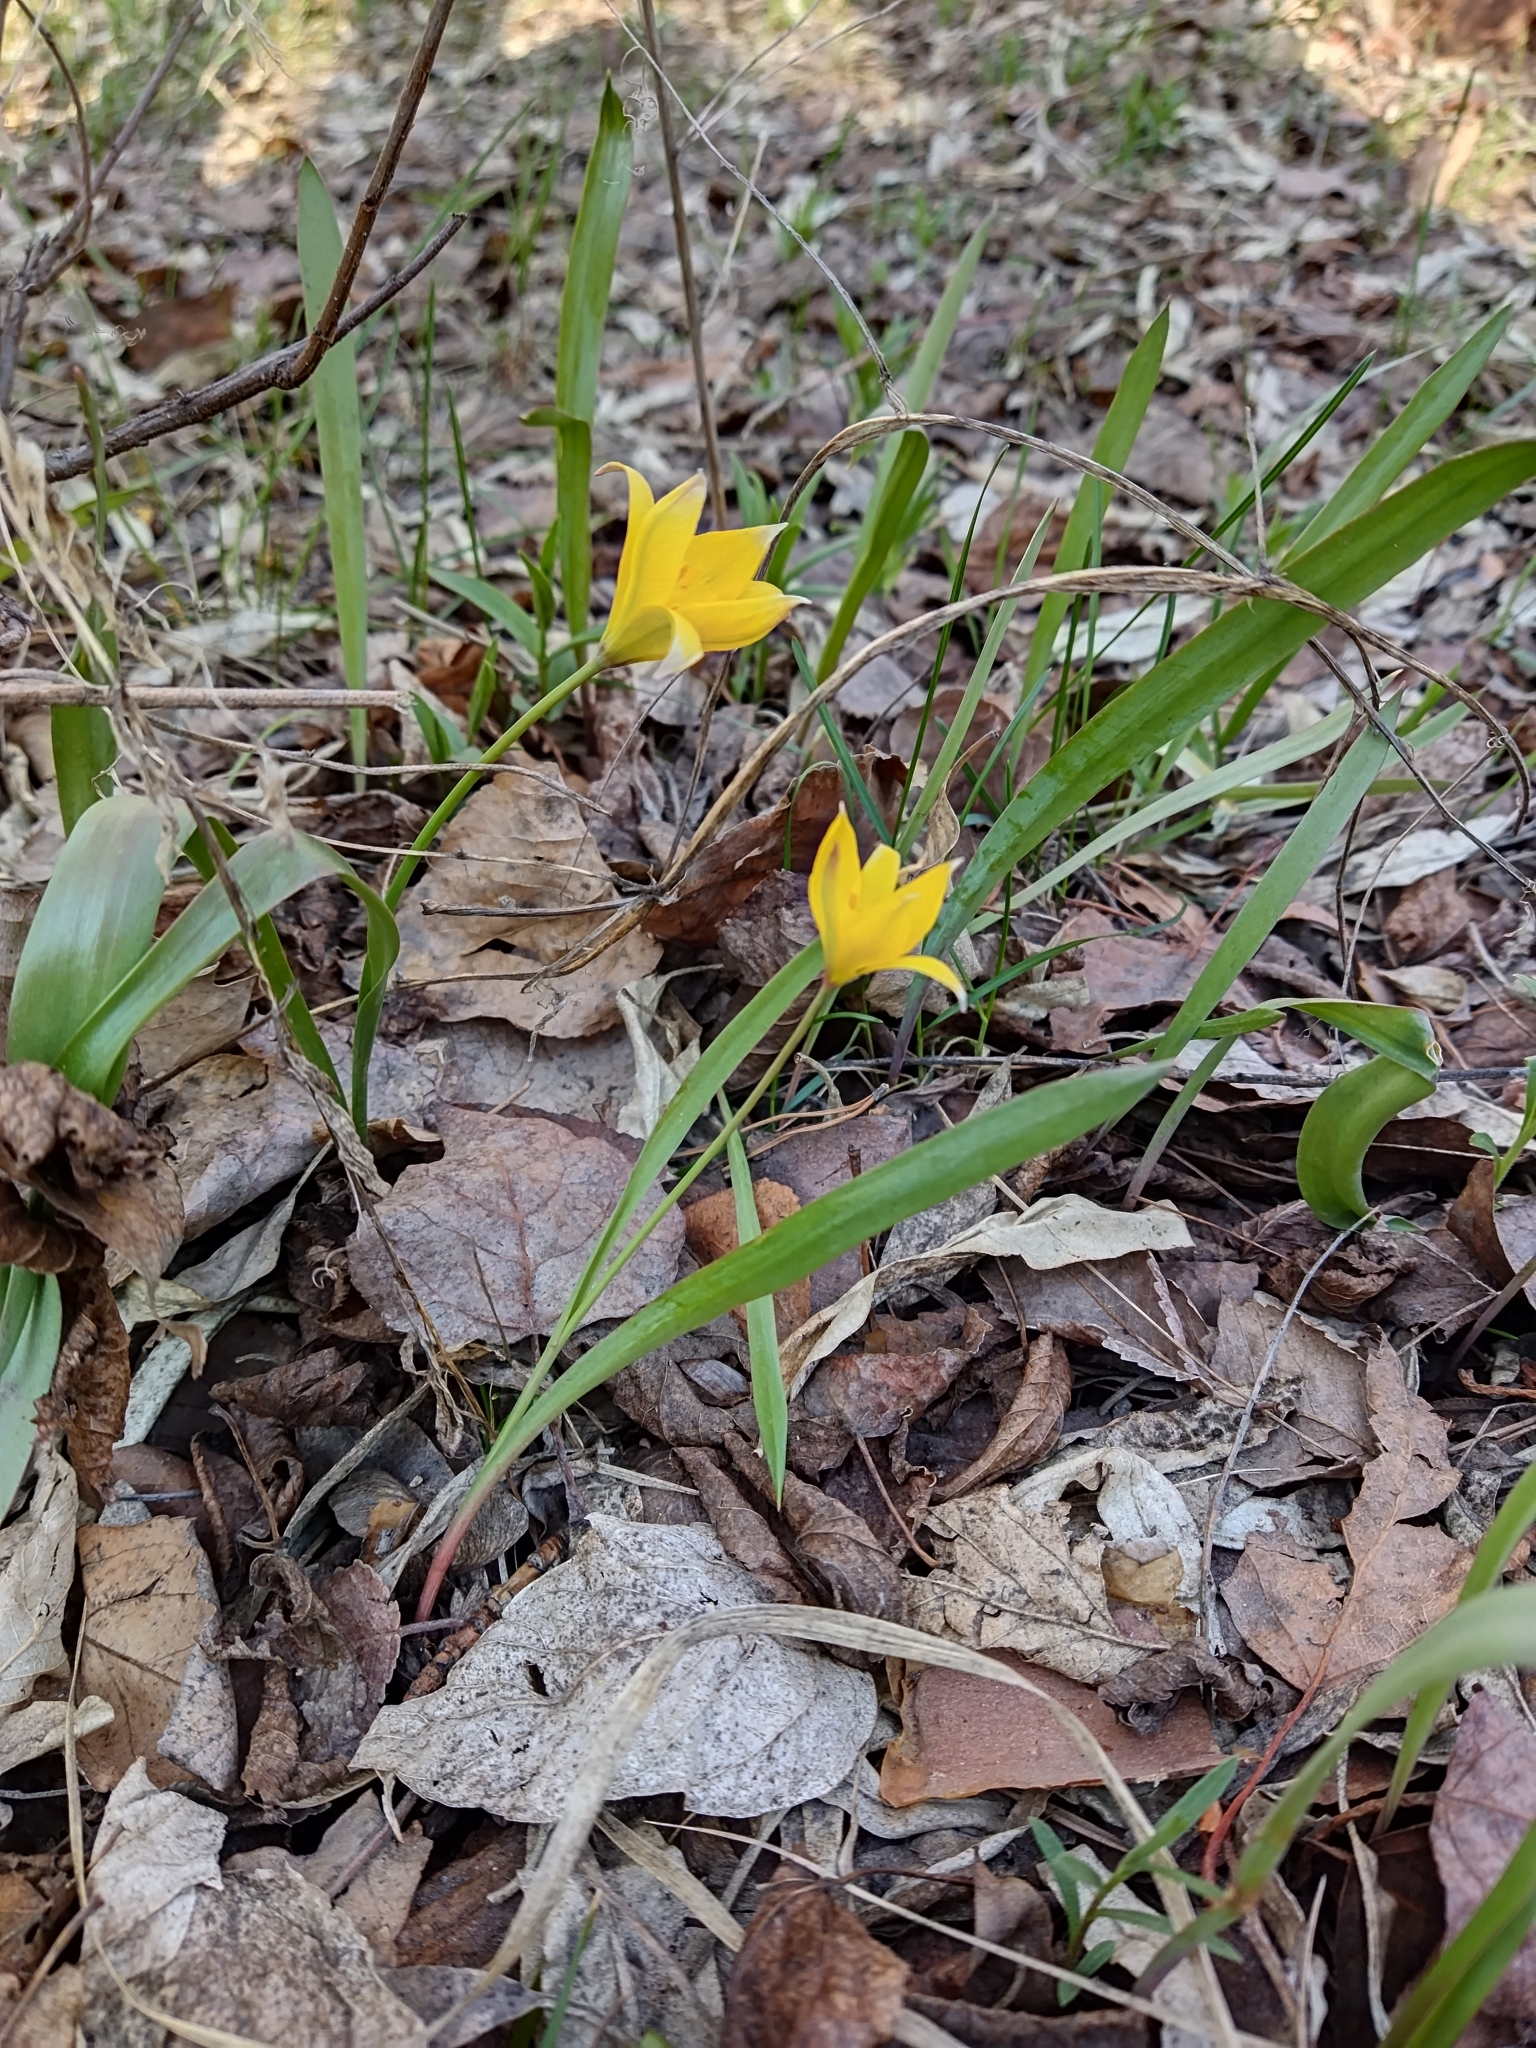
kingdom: Plantae
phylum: Tracheophyta
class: Liliopsida
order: Liliales
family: Liliaceae
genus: Tulipa
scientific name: Tulipa sylvestris
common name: Wild tulip
